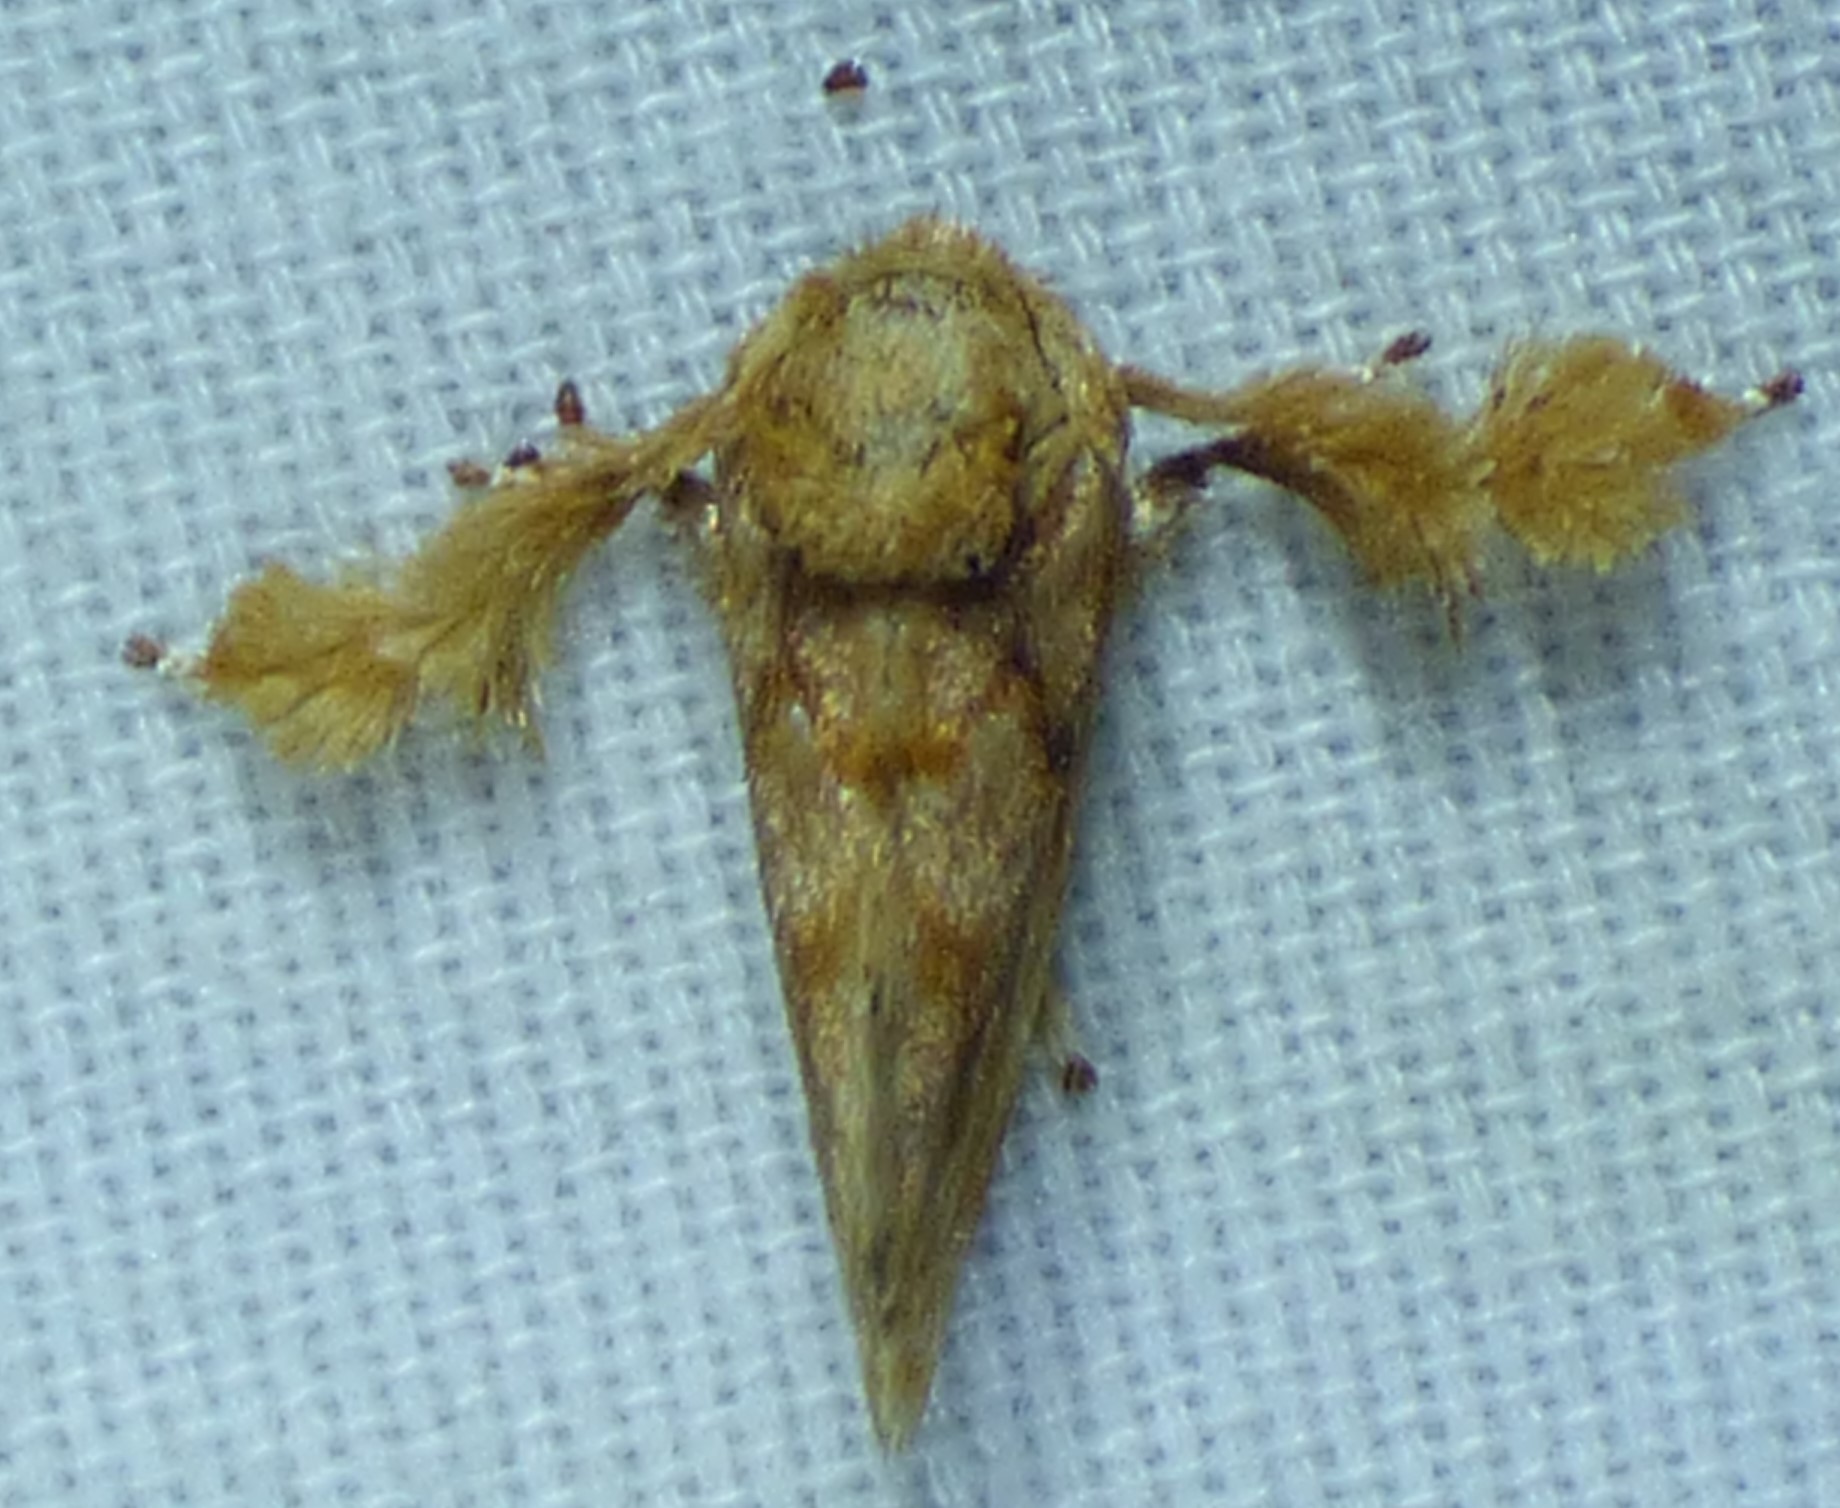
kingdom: Animalia
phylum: Arthropoda
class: Insecta
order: Lepidoptera
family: Limacodidae
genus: Isochaetes
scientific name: Isochaetes beutenmuelleri
